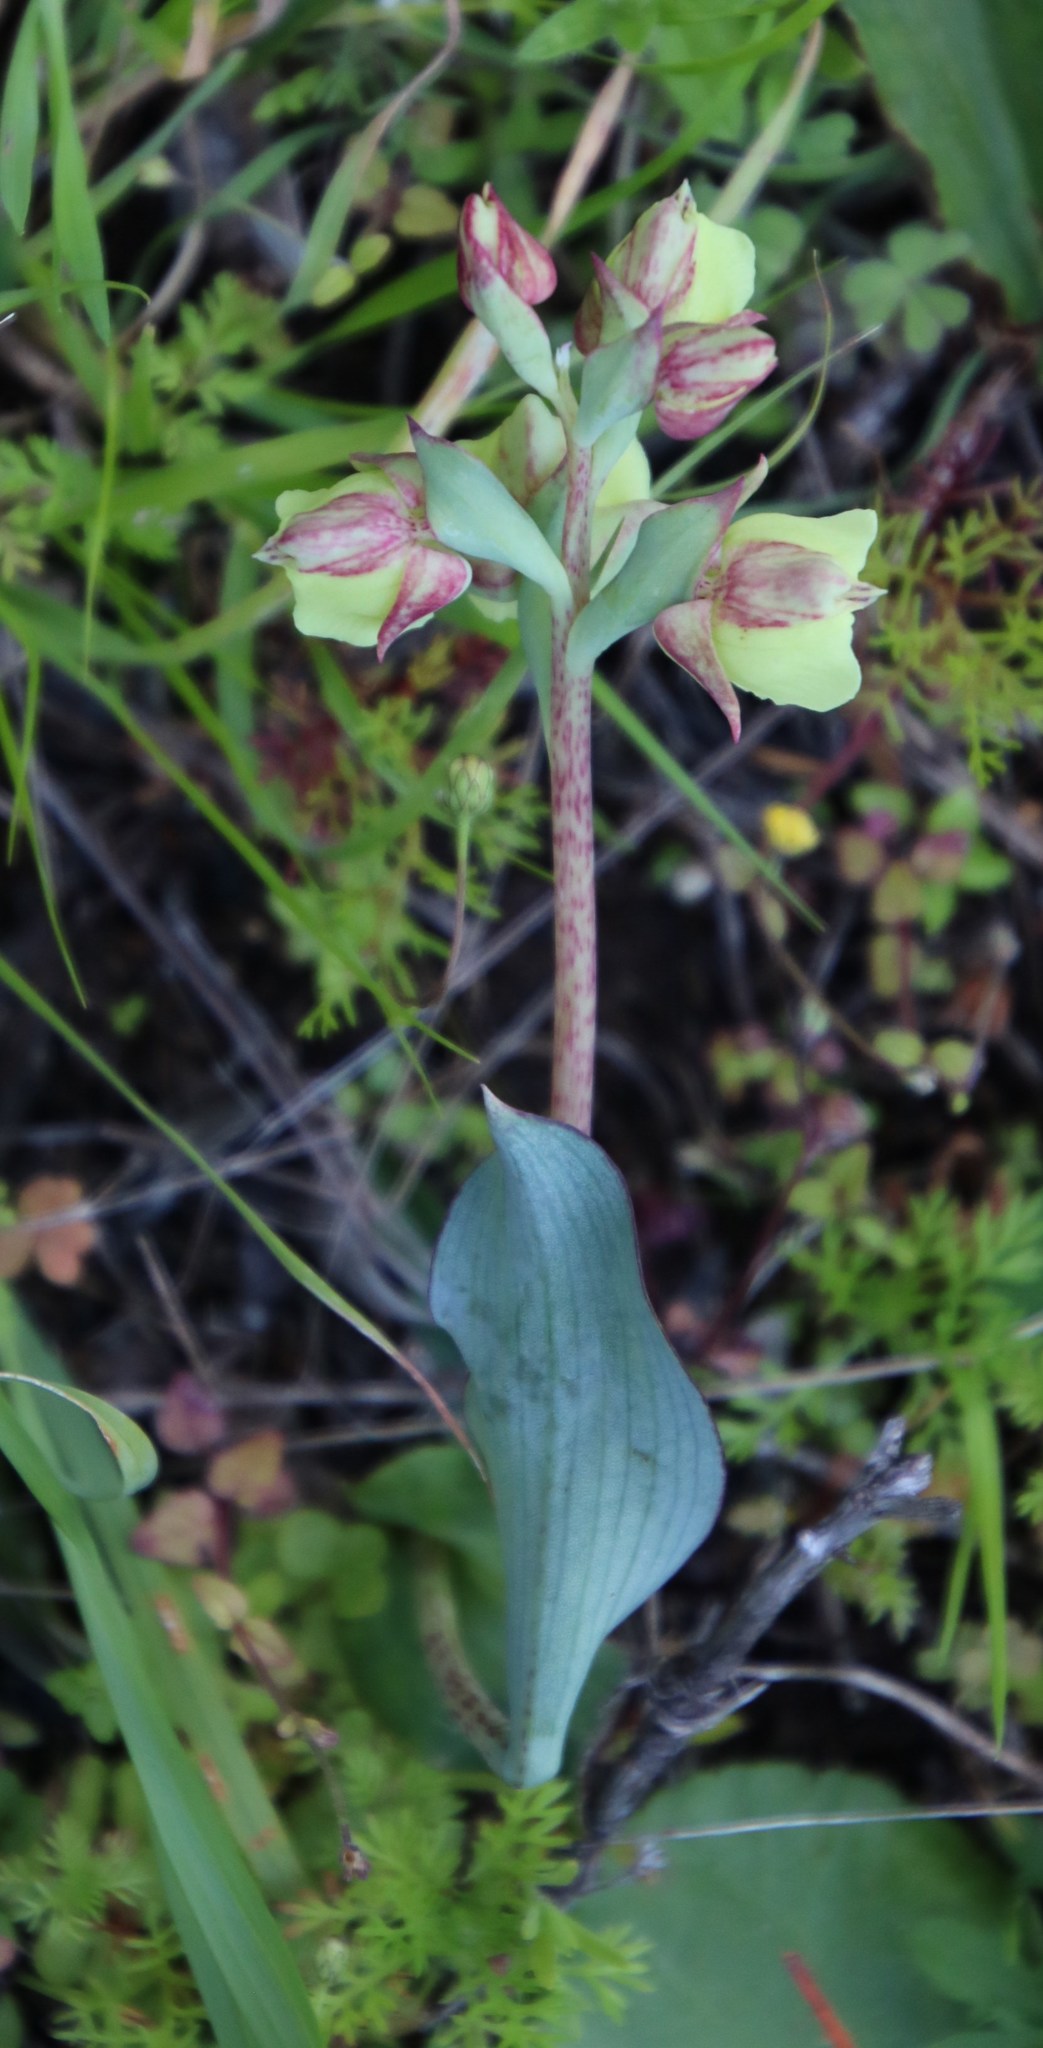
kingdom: Plantae
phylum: Tracheophyta
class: Liliopsida
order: Asparagales
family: Orchidaceae
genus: Pterygodium
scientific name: Pterygodium catholicum
